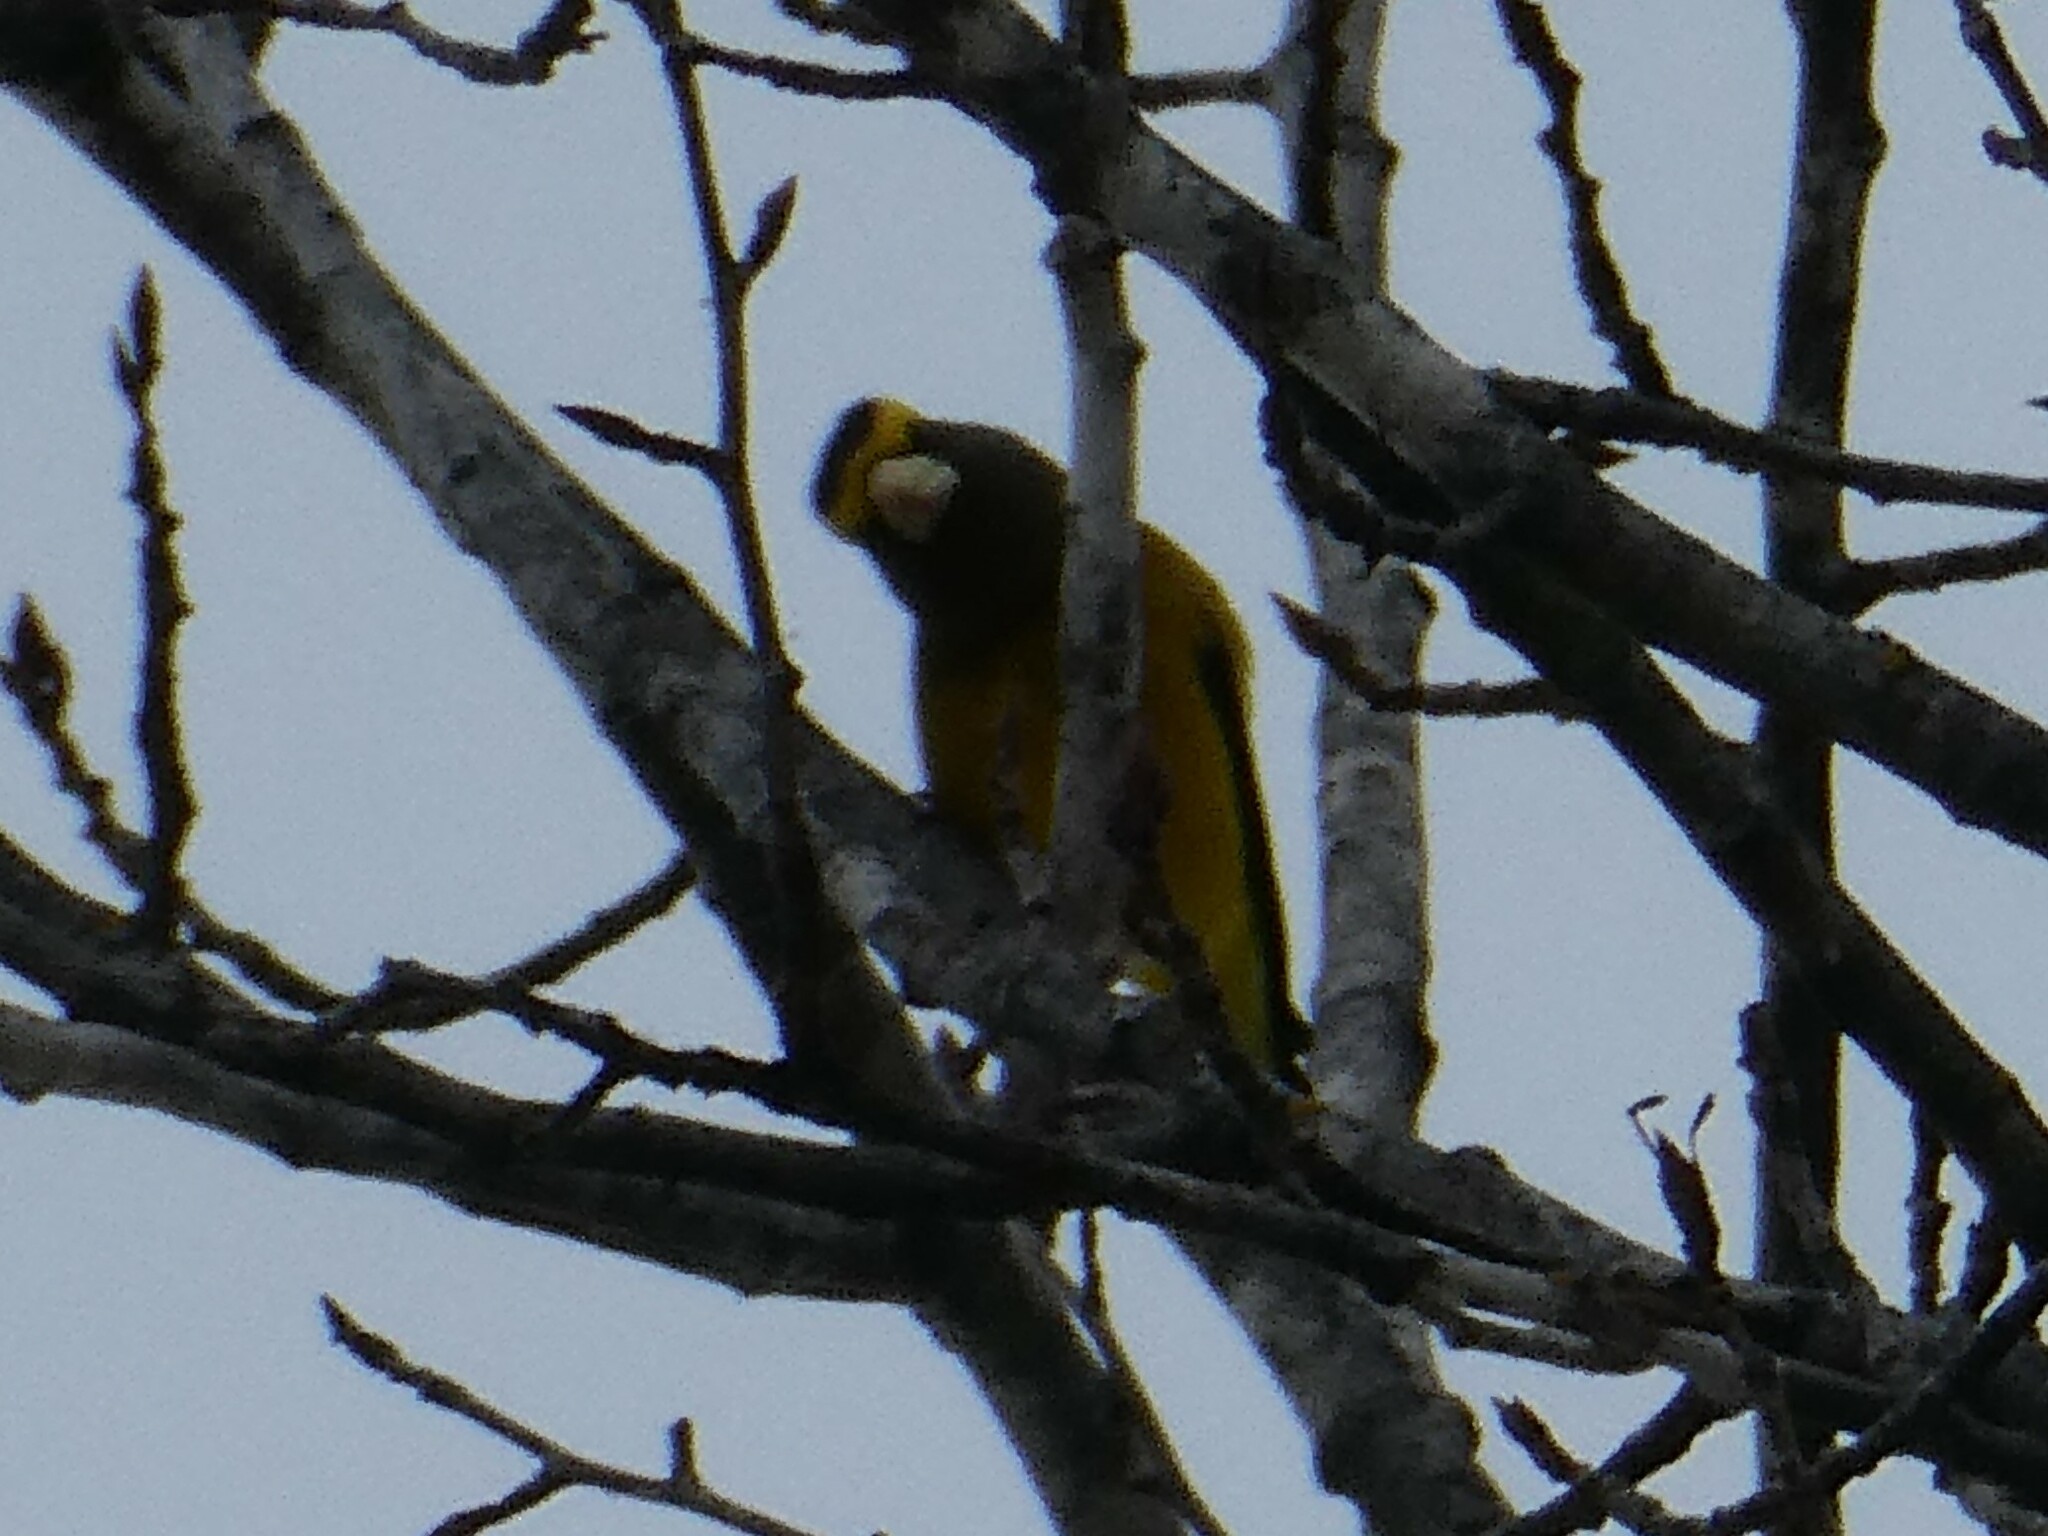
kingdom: Animalia
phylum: Chordata
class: Aves
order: Passeriformes
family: Fringillidae
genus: Hesperiphona
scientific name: Hesperiphona vespertina
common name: Evening grosbeak
